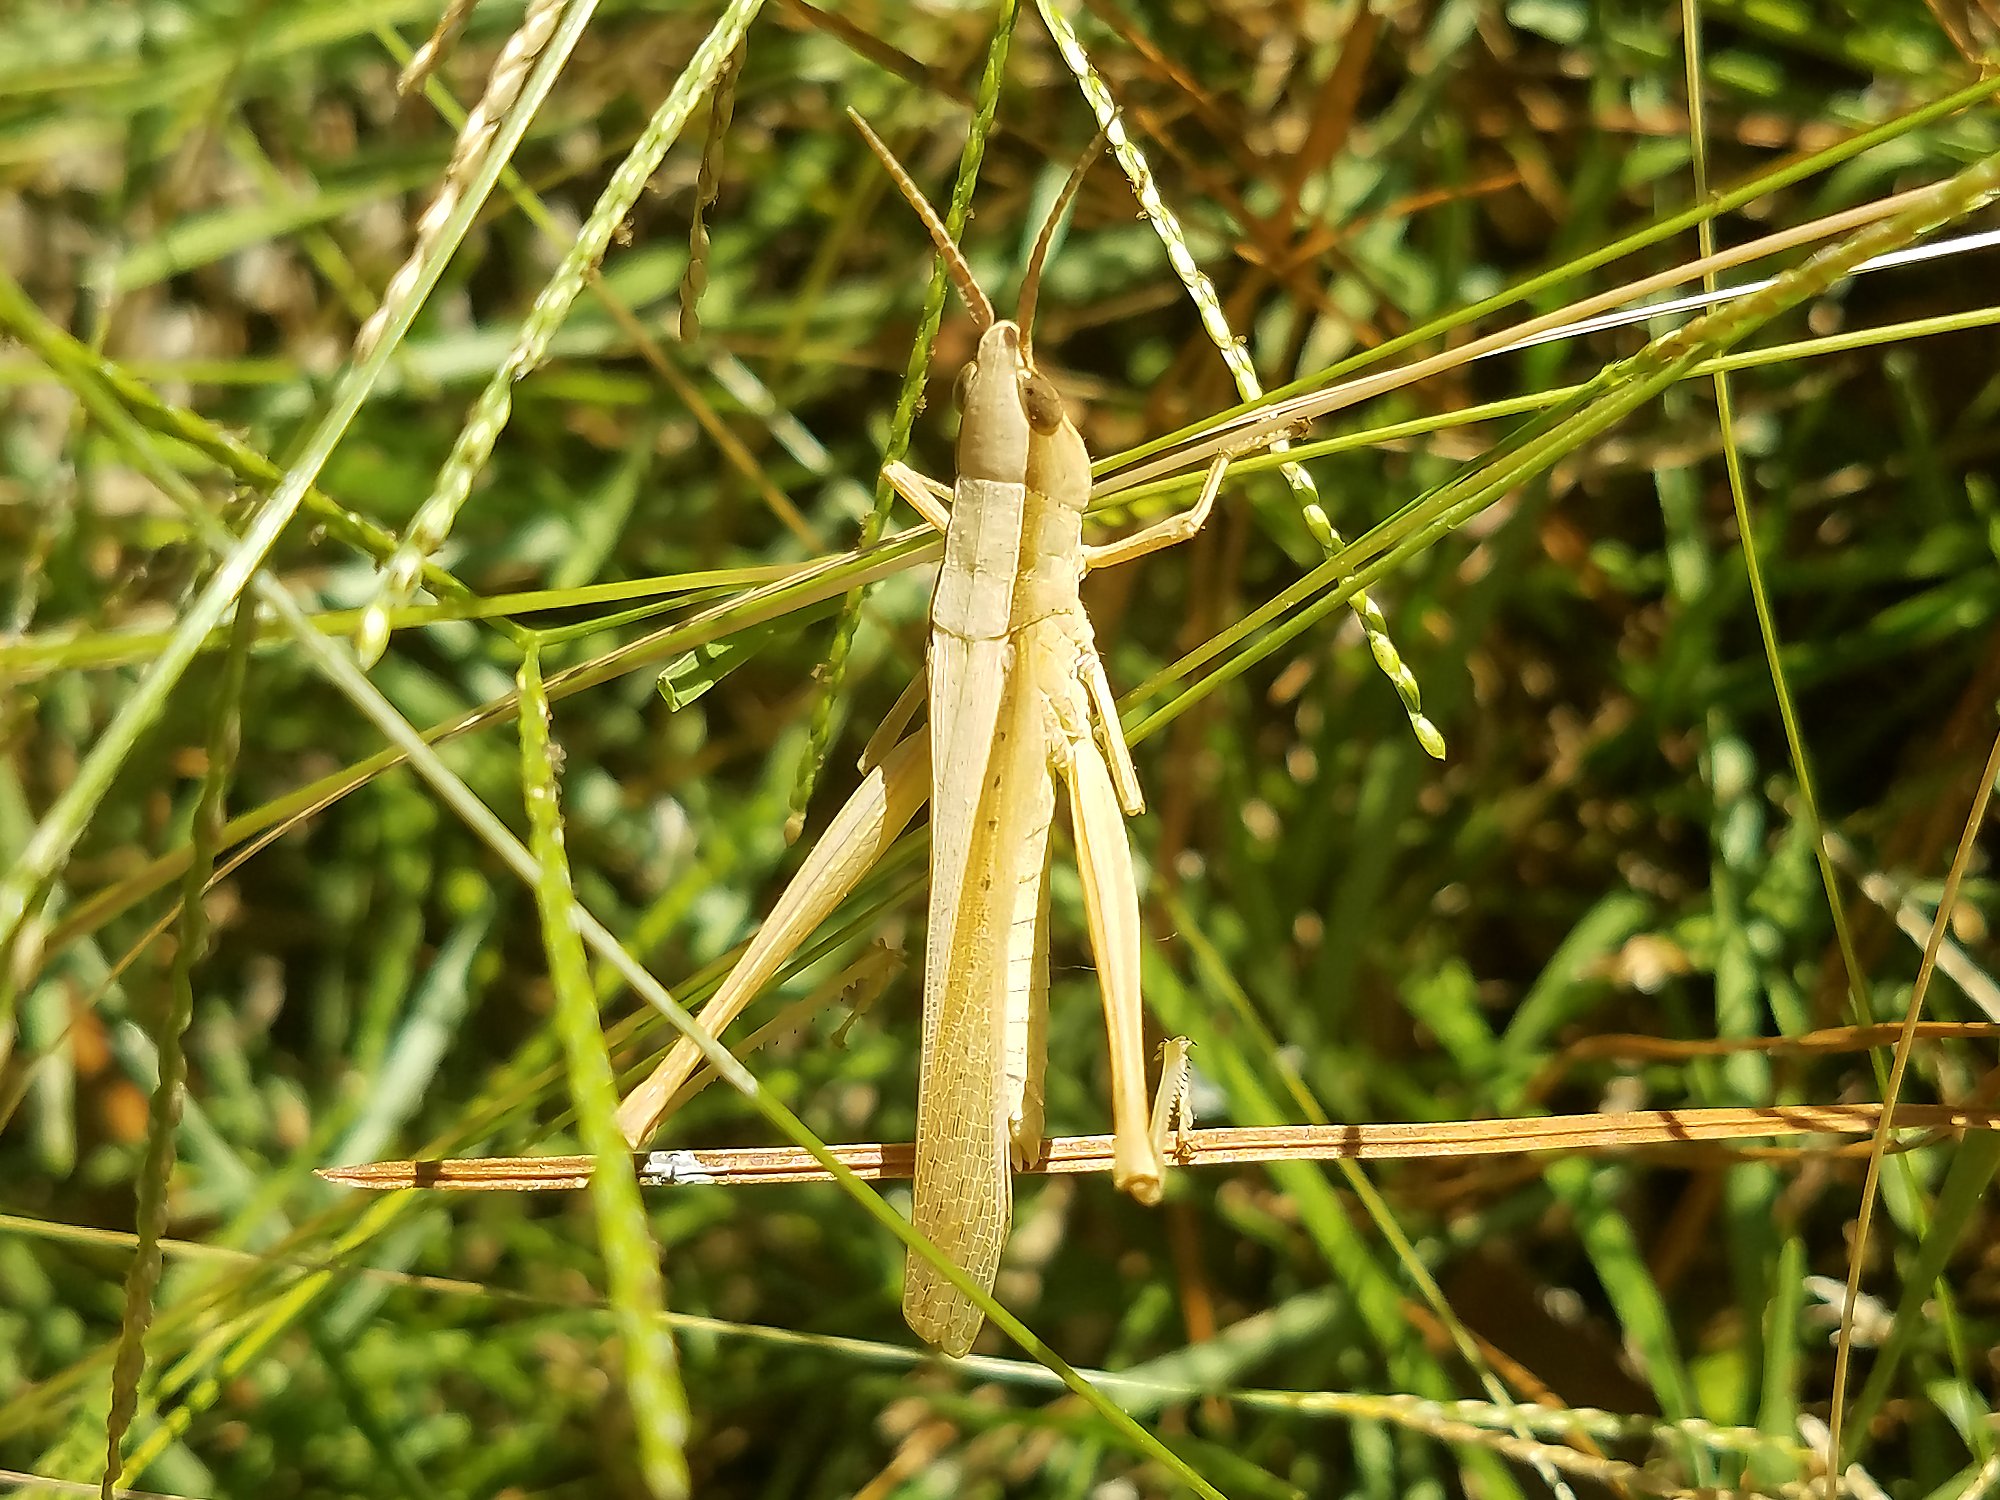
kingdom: Animalia
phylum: Arthropoda
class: Insecta
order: Orthoptera
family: Acrididae
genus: Metaleptea
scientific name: Metaleptea brevicornis
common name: Clipped-wing grasshopper
